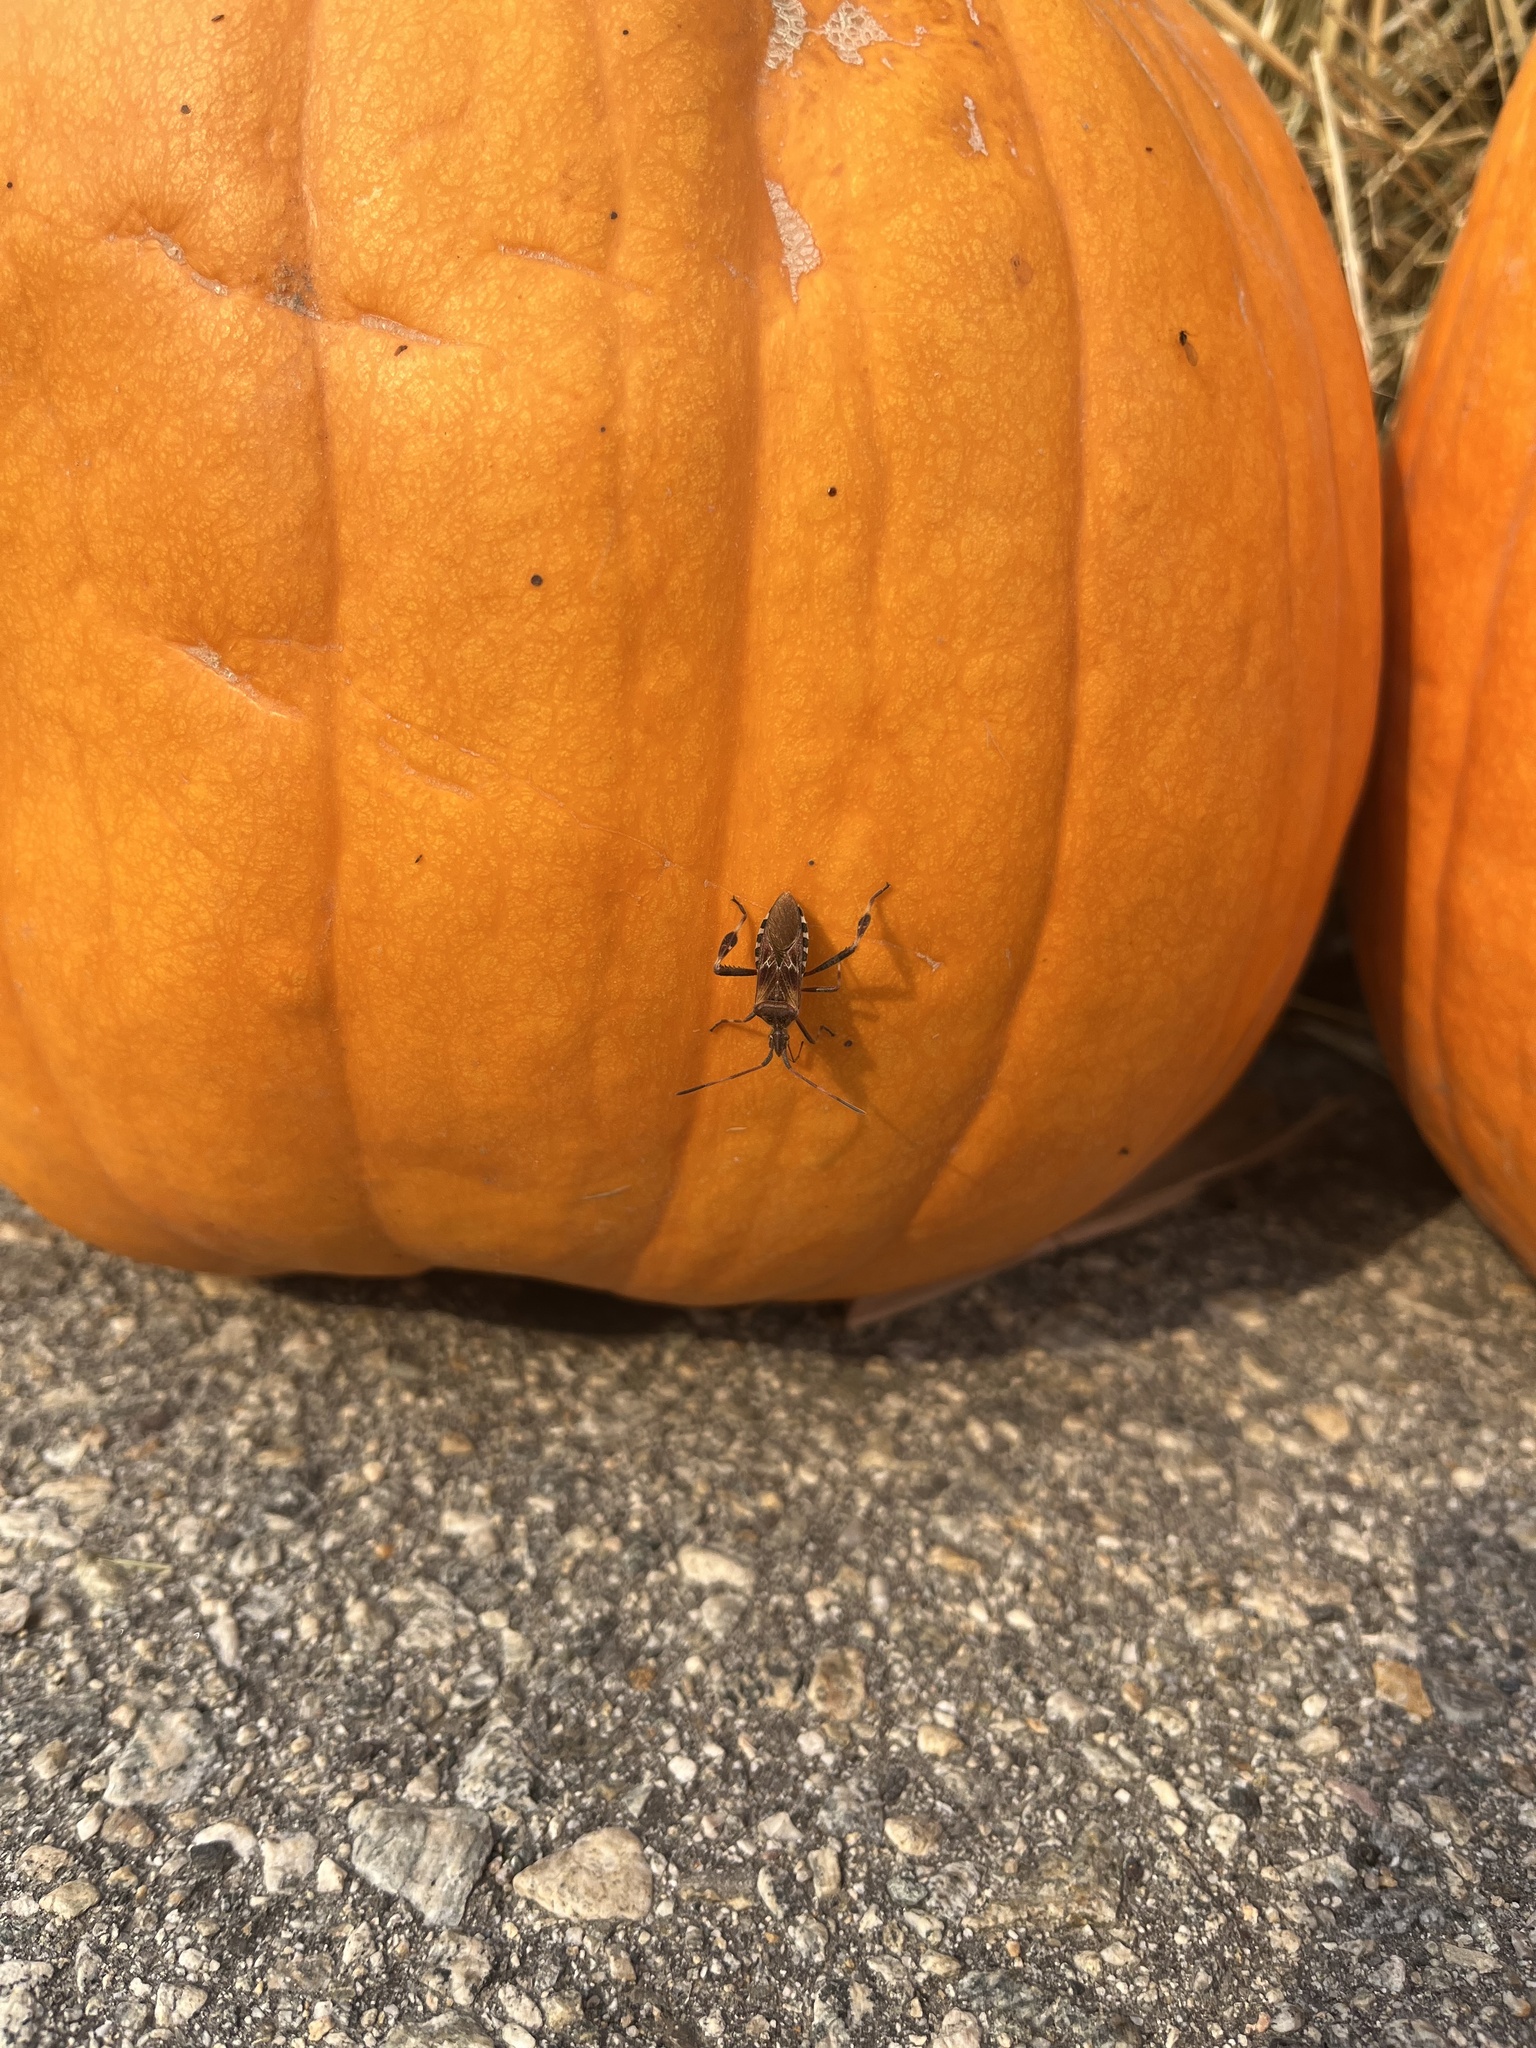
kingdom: Animalia
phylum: Arthropoda
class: Insecta
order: Hemiptera
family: Coreidae
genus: Leptoglossus
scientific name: Leptoglossus occidentalis
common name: Western conifer-seed bug
